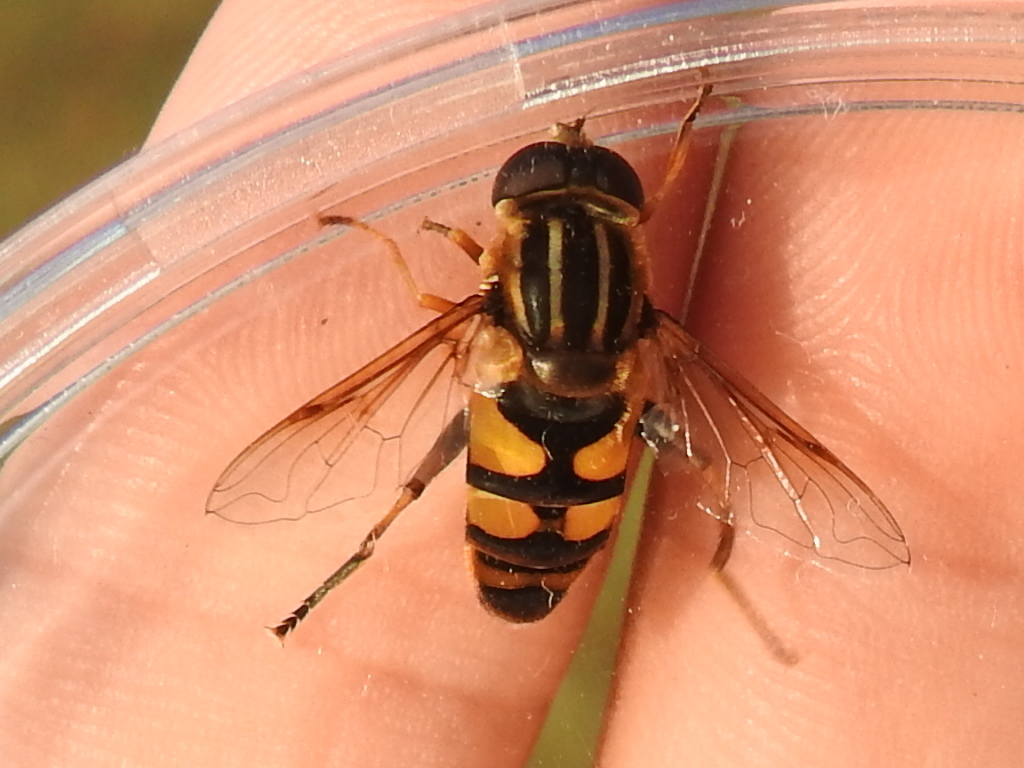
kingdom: Animalia
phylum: Arthropoda
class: Insecta
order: Diptera
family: Syrphidae
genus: Helophilus
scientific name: Helophilus fasciatus
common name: Narrow-headed marsh fly
